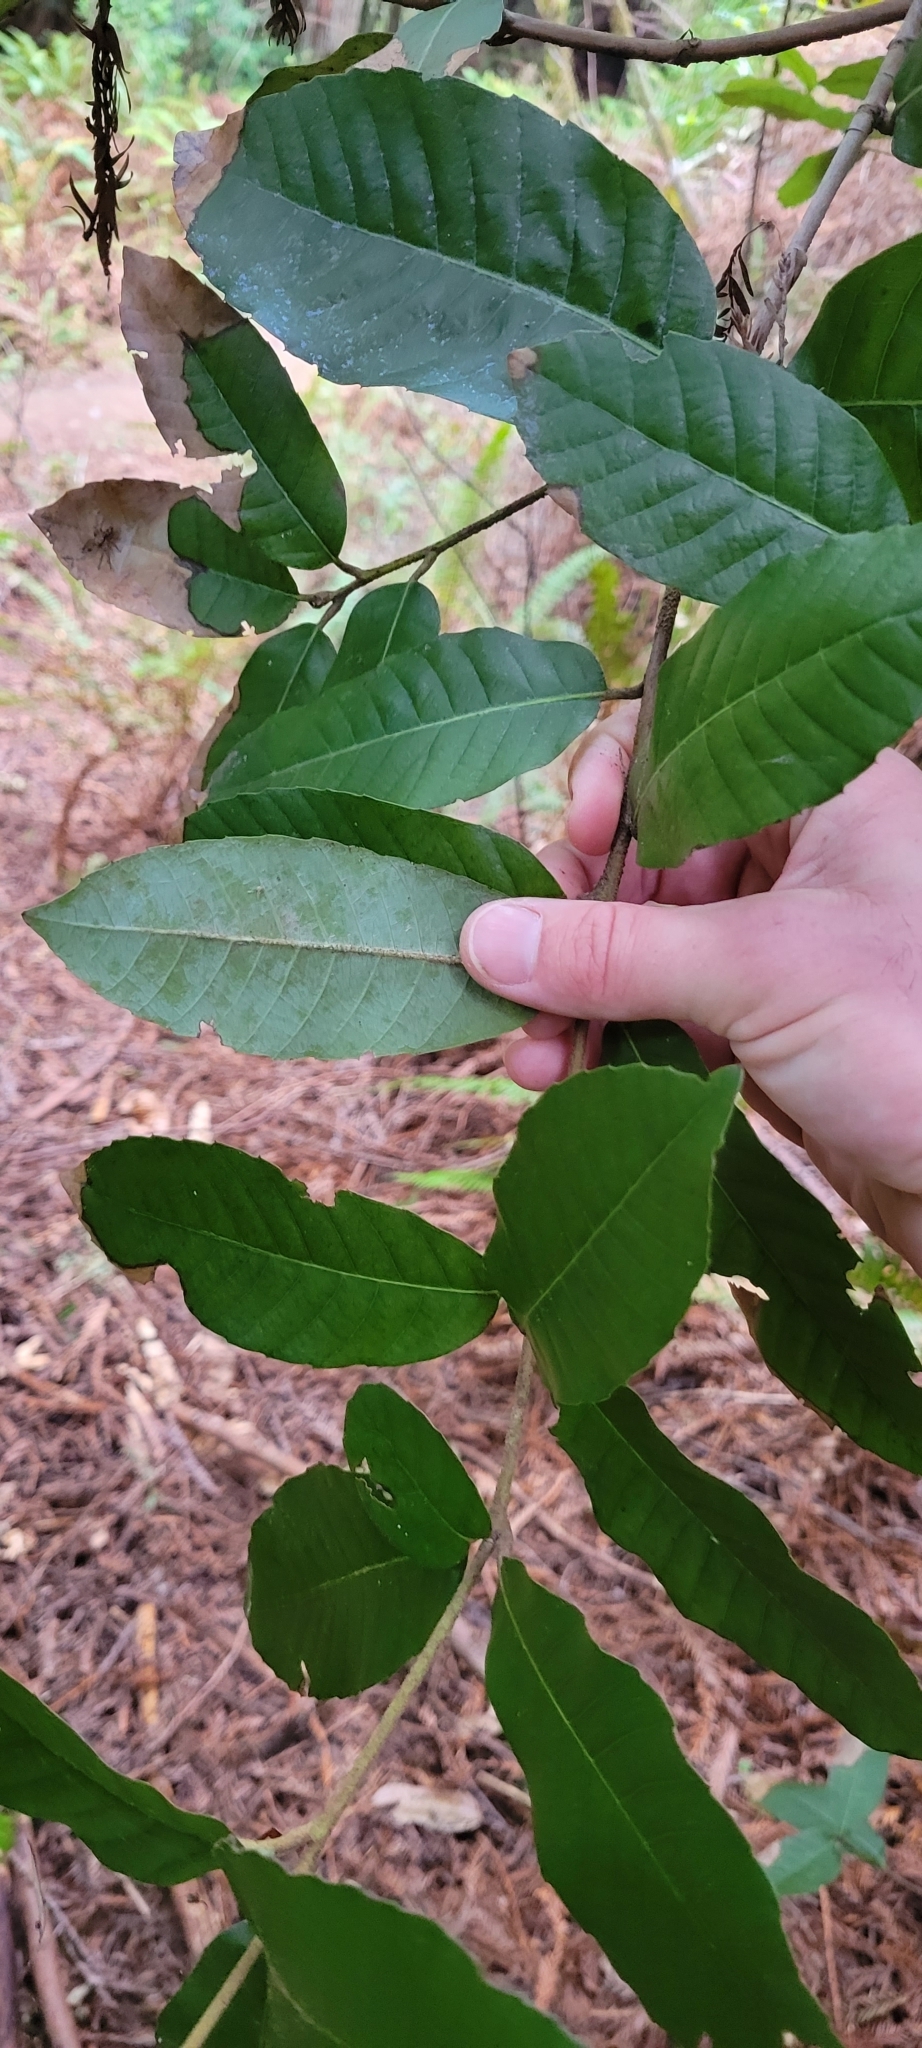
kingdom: Plantae
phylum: Tracheophyta
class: Magnoliopsida
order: Fagales
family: Fagaceae
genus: Notholithocarpus
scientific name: Notholithocarpus densiflorus
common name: Tan bark oak
